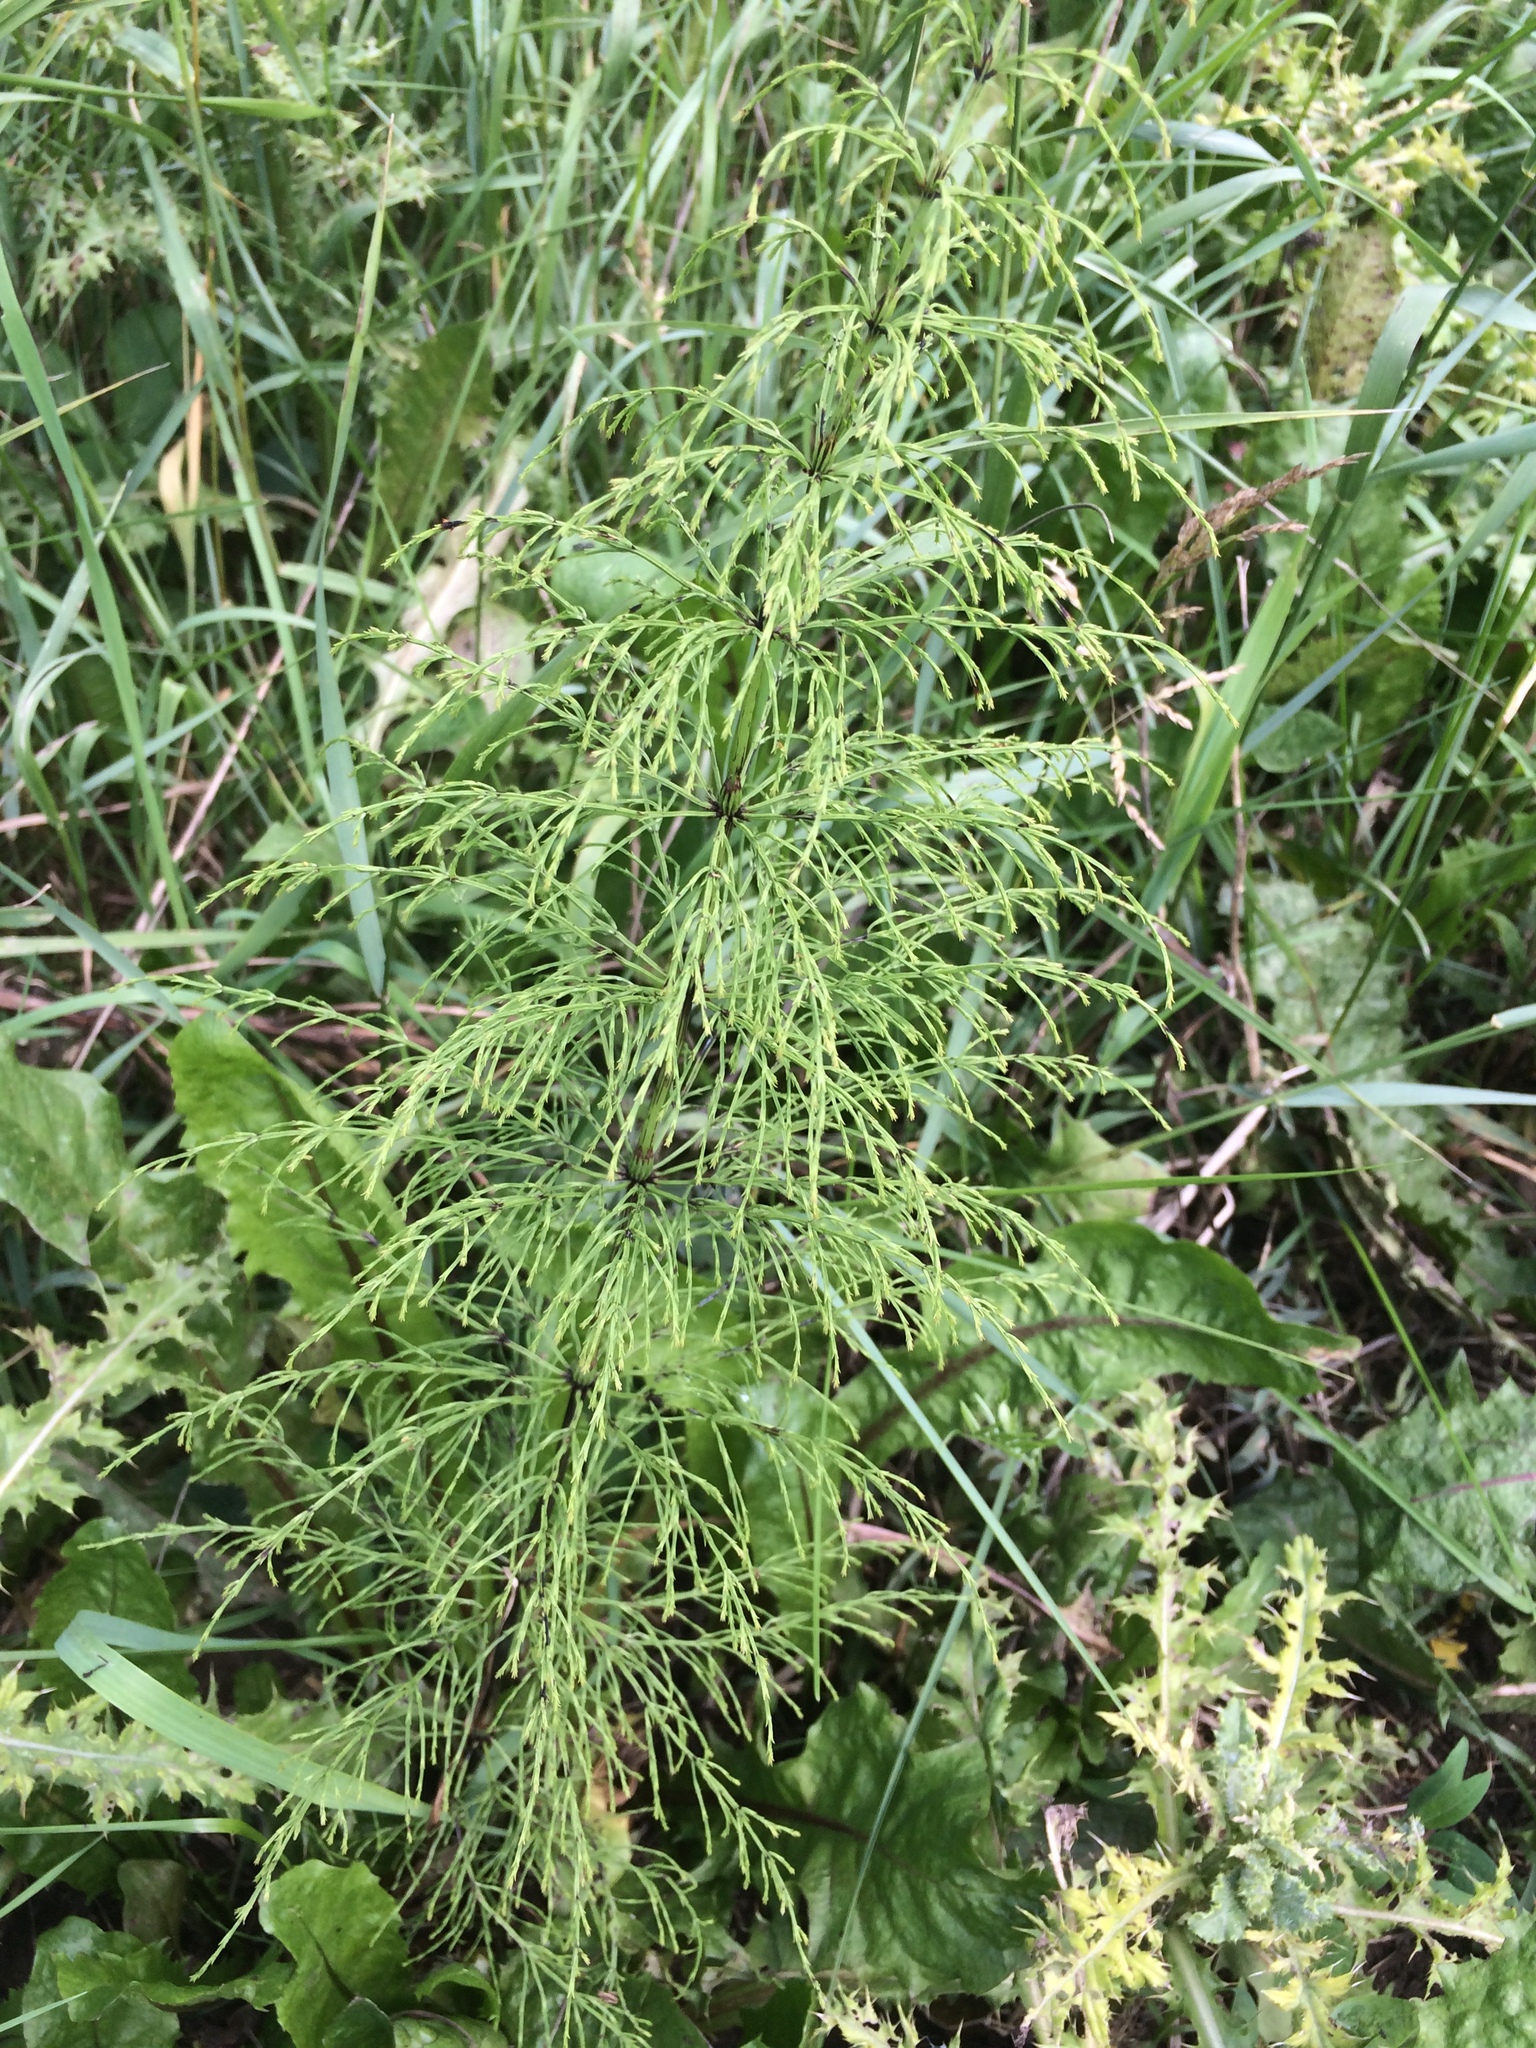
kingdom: Plantae
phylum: Tracheophyta
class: Polypodiopsida
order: Equisetales
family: Equisetaceae
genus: Equisetum
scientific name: Equisetum sylvaticum
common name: Wood horsetail
